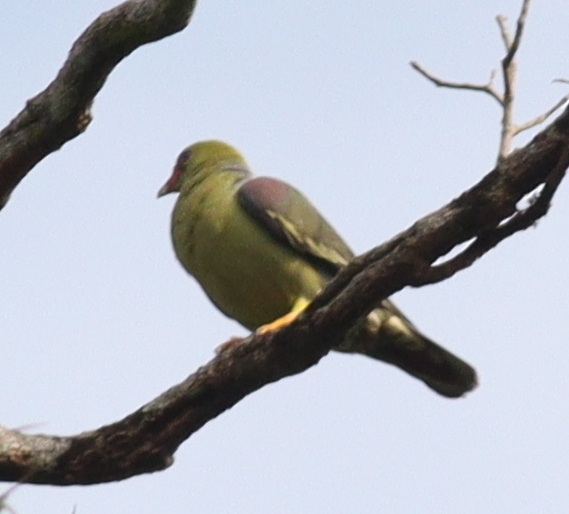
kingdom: Animalia
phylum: Chordata
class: Aves
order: Columbiformes
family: Columbidae
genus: Treron
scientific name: Treron calvus
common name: African green pigeon
